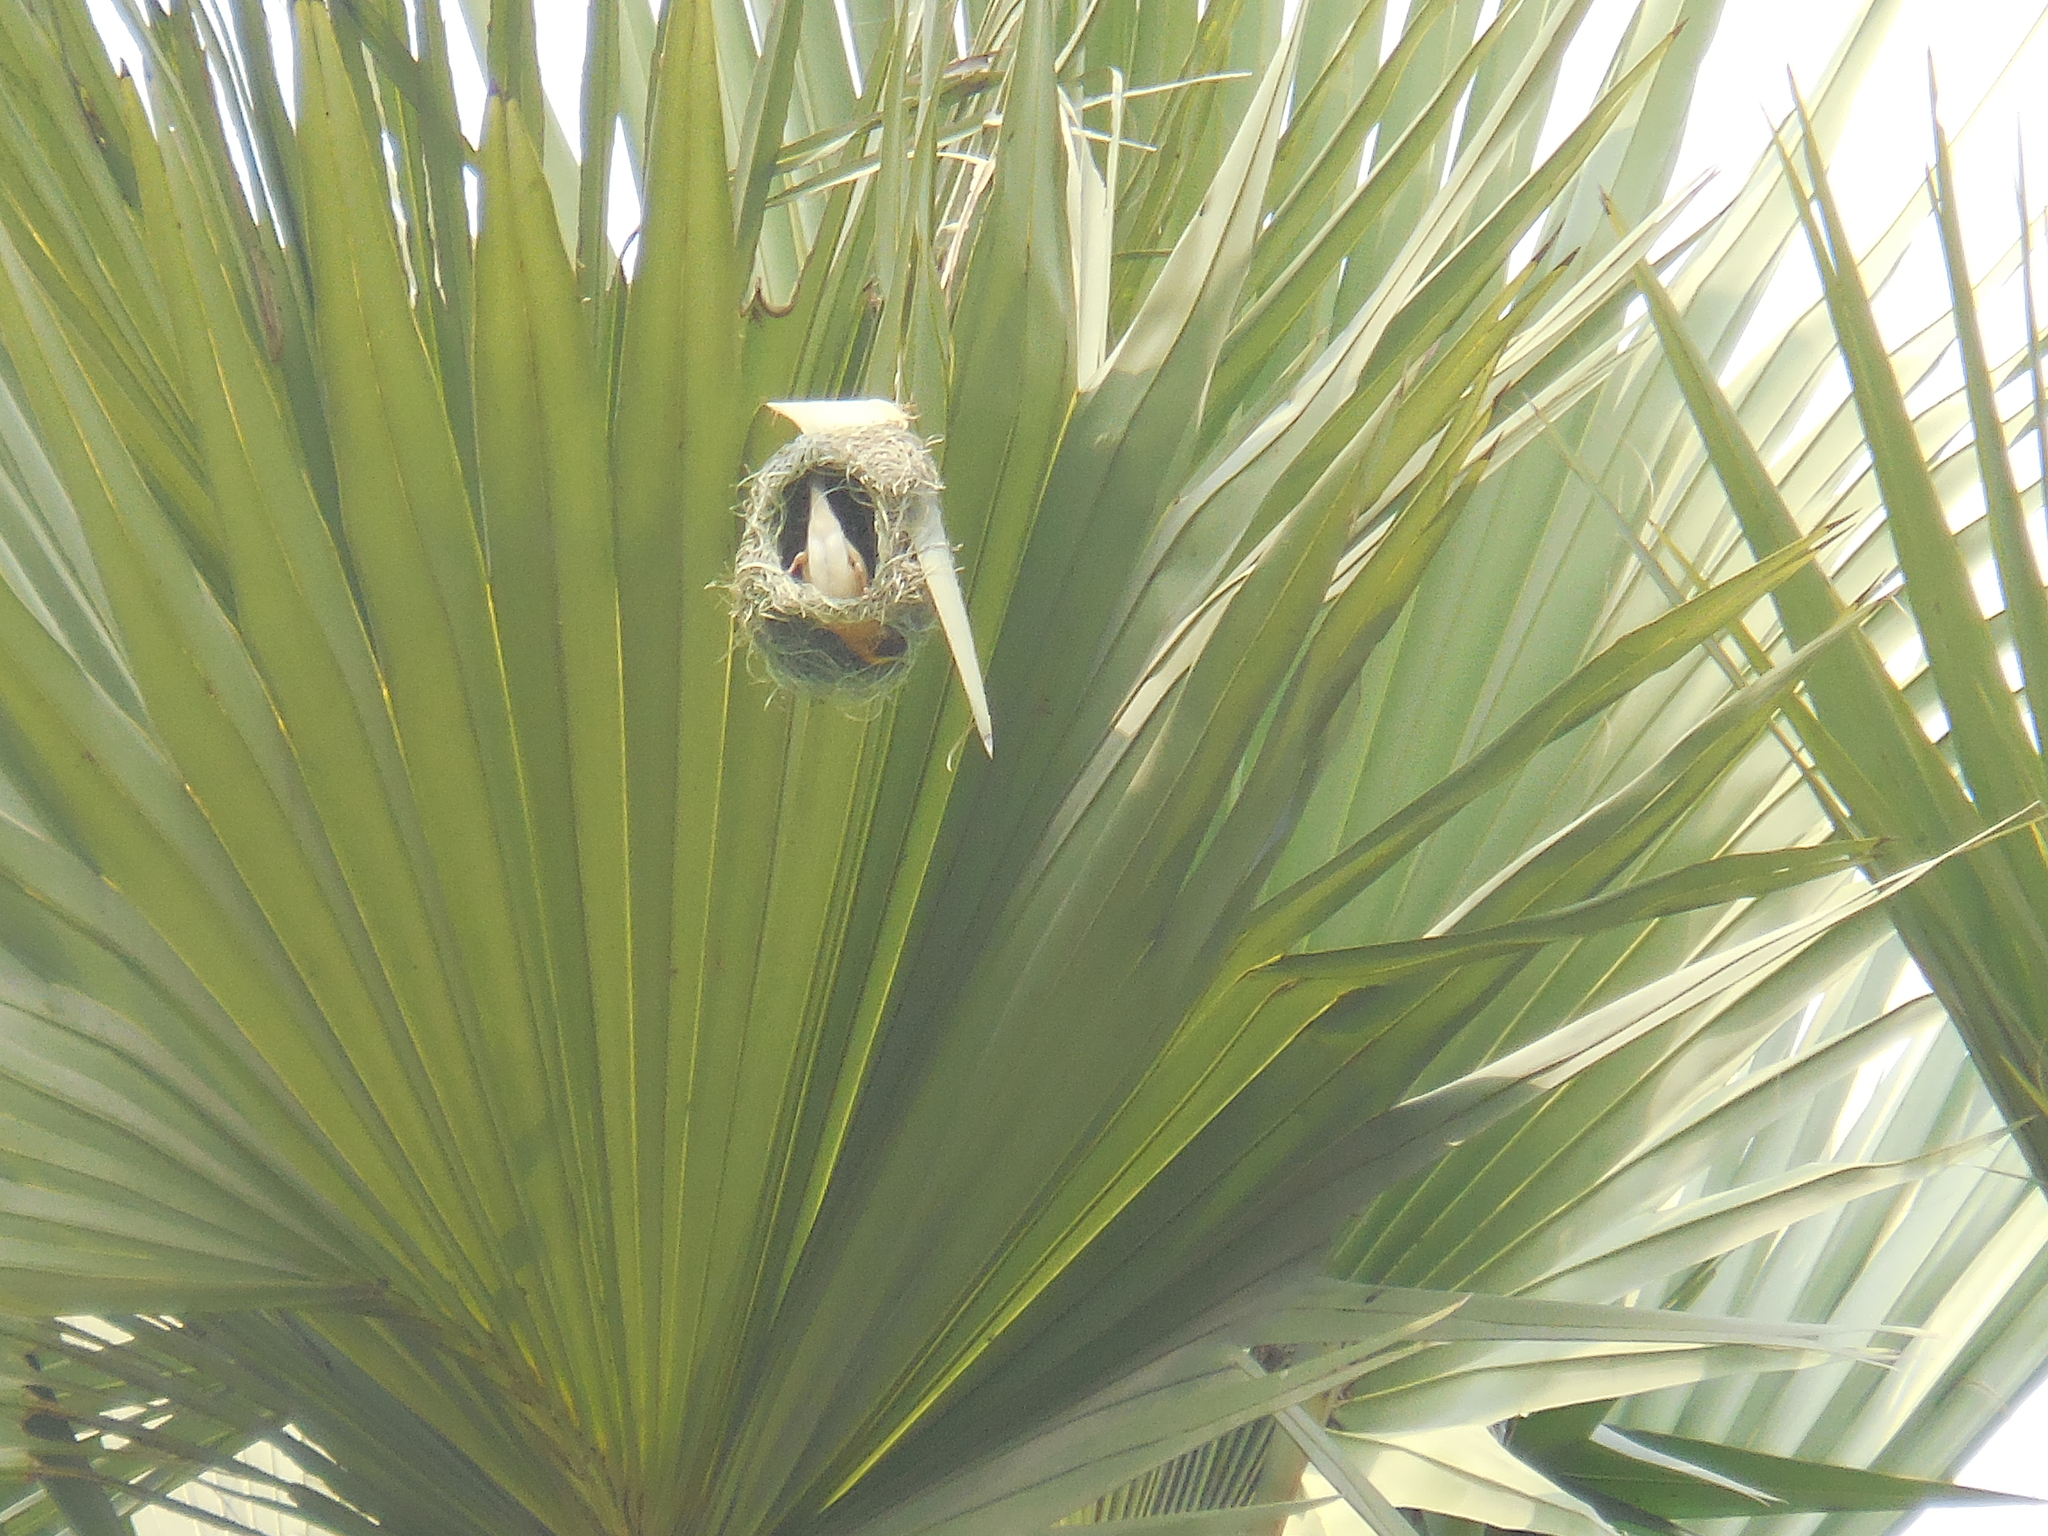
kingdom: Animalia
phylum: Chordata
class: Aves
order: Passeriformes
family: Ploceidae
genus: Ploceus
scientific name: Ploceus philippinus
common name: Baya weaver
